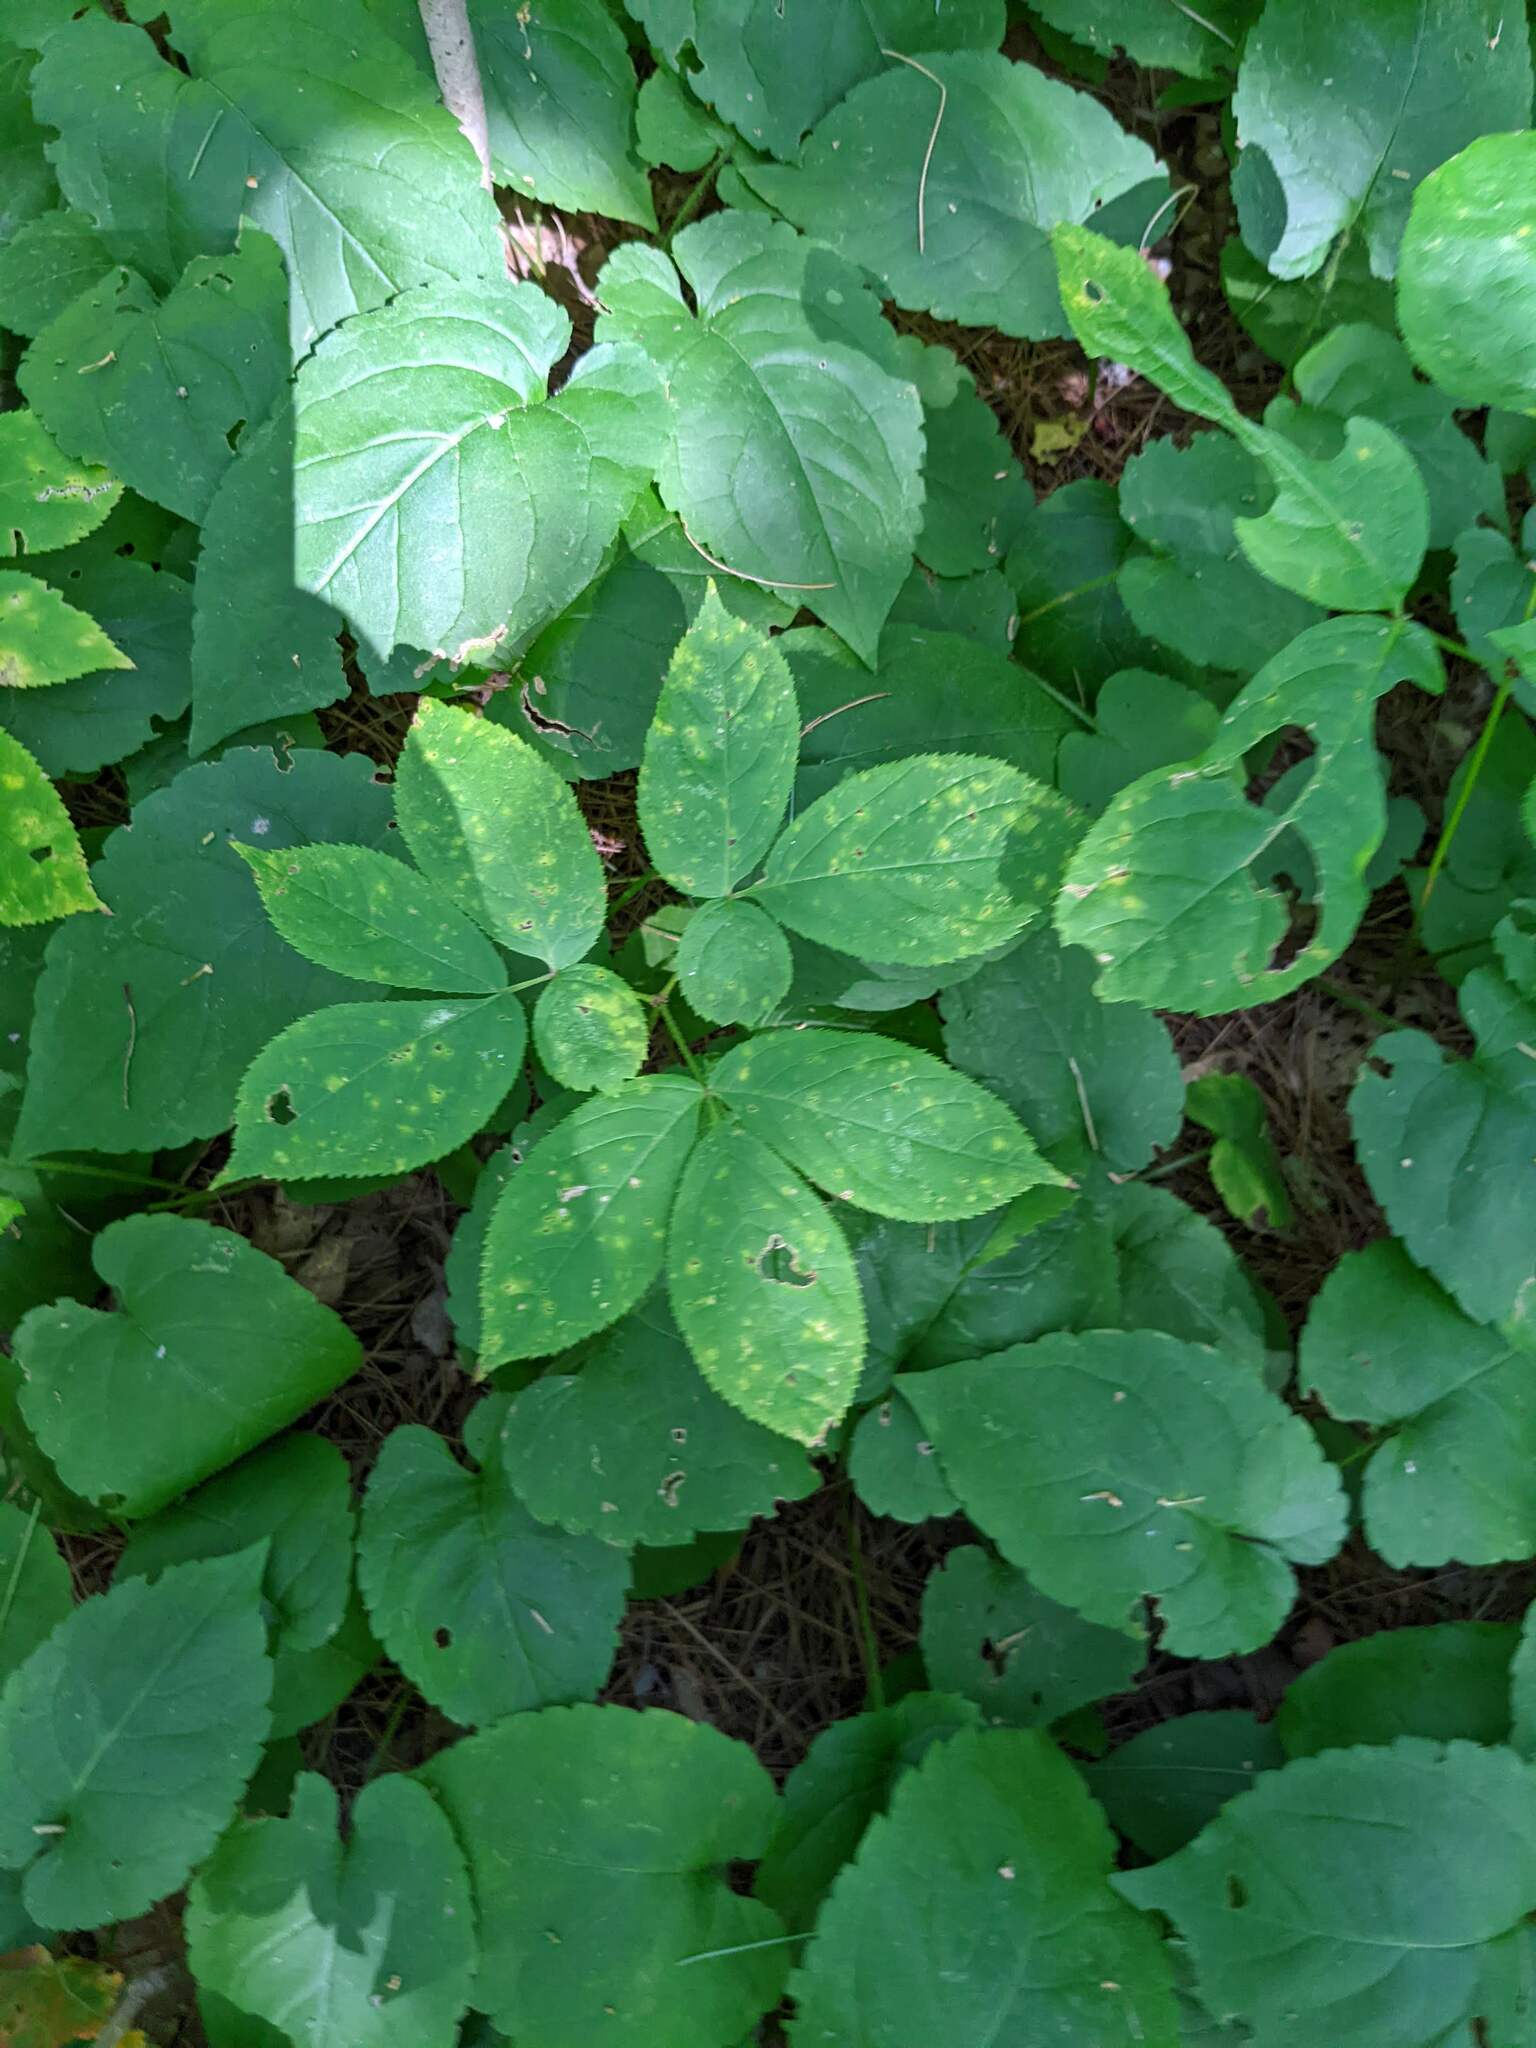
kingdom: Plantae
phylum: Tracheophyta
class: Magnoliopsida
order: Apiales
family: Araliaceae
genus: Aralia
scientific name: Aralia nudicaulis
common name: Wild sarsaparilla
